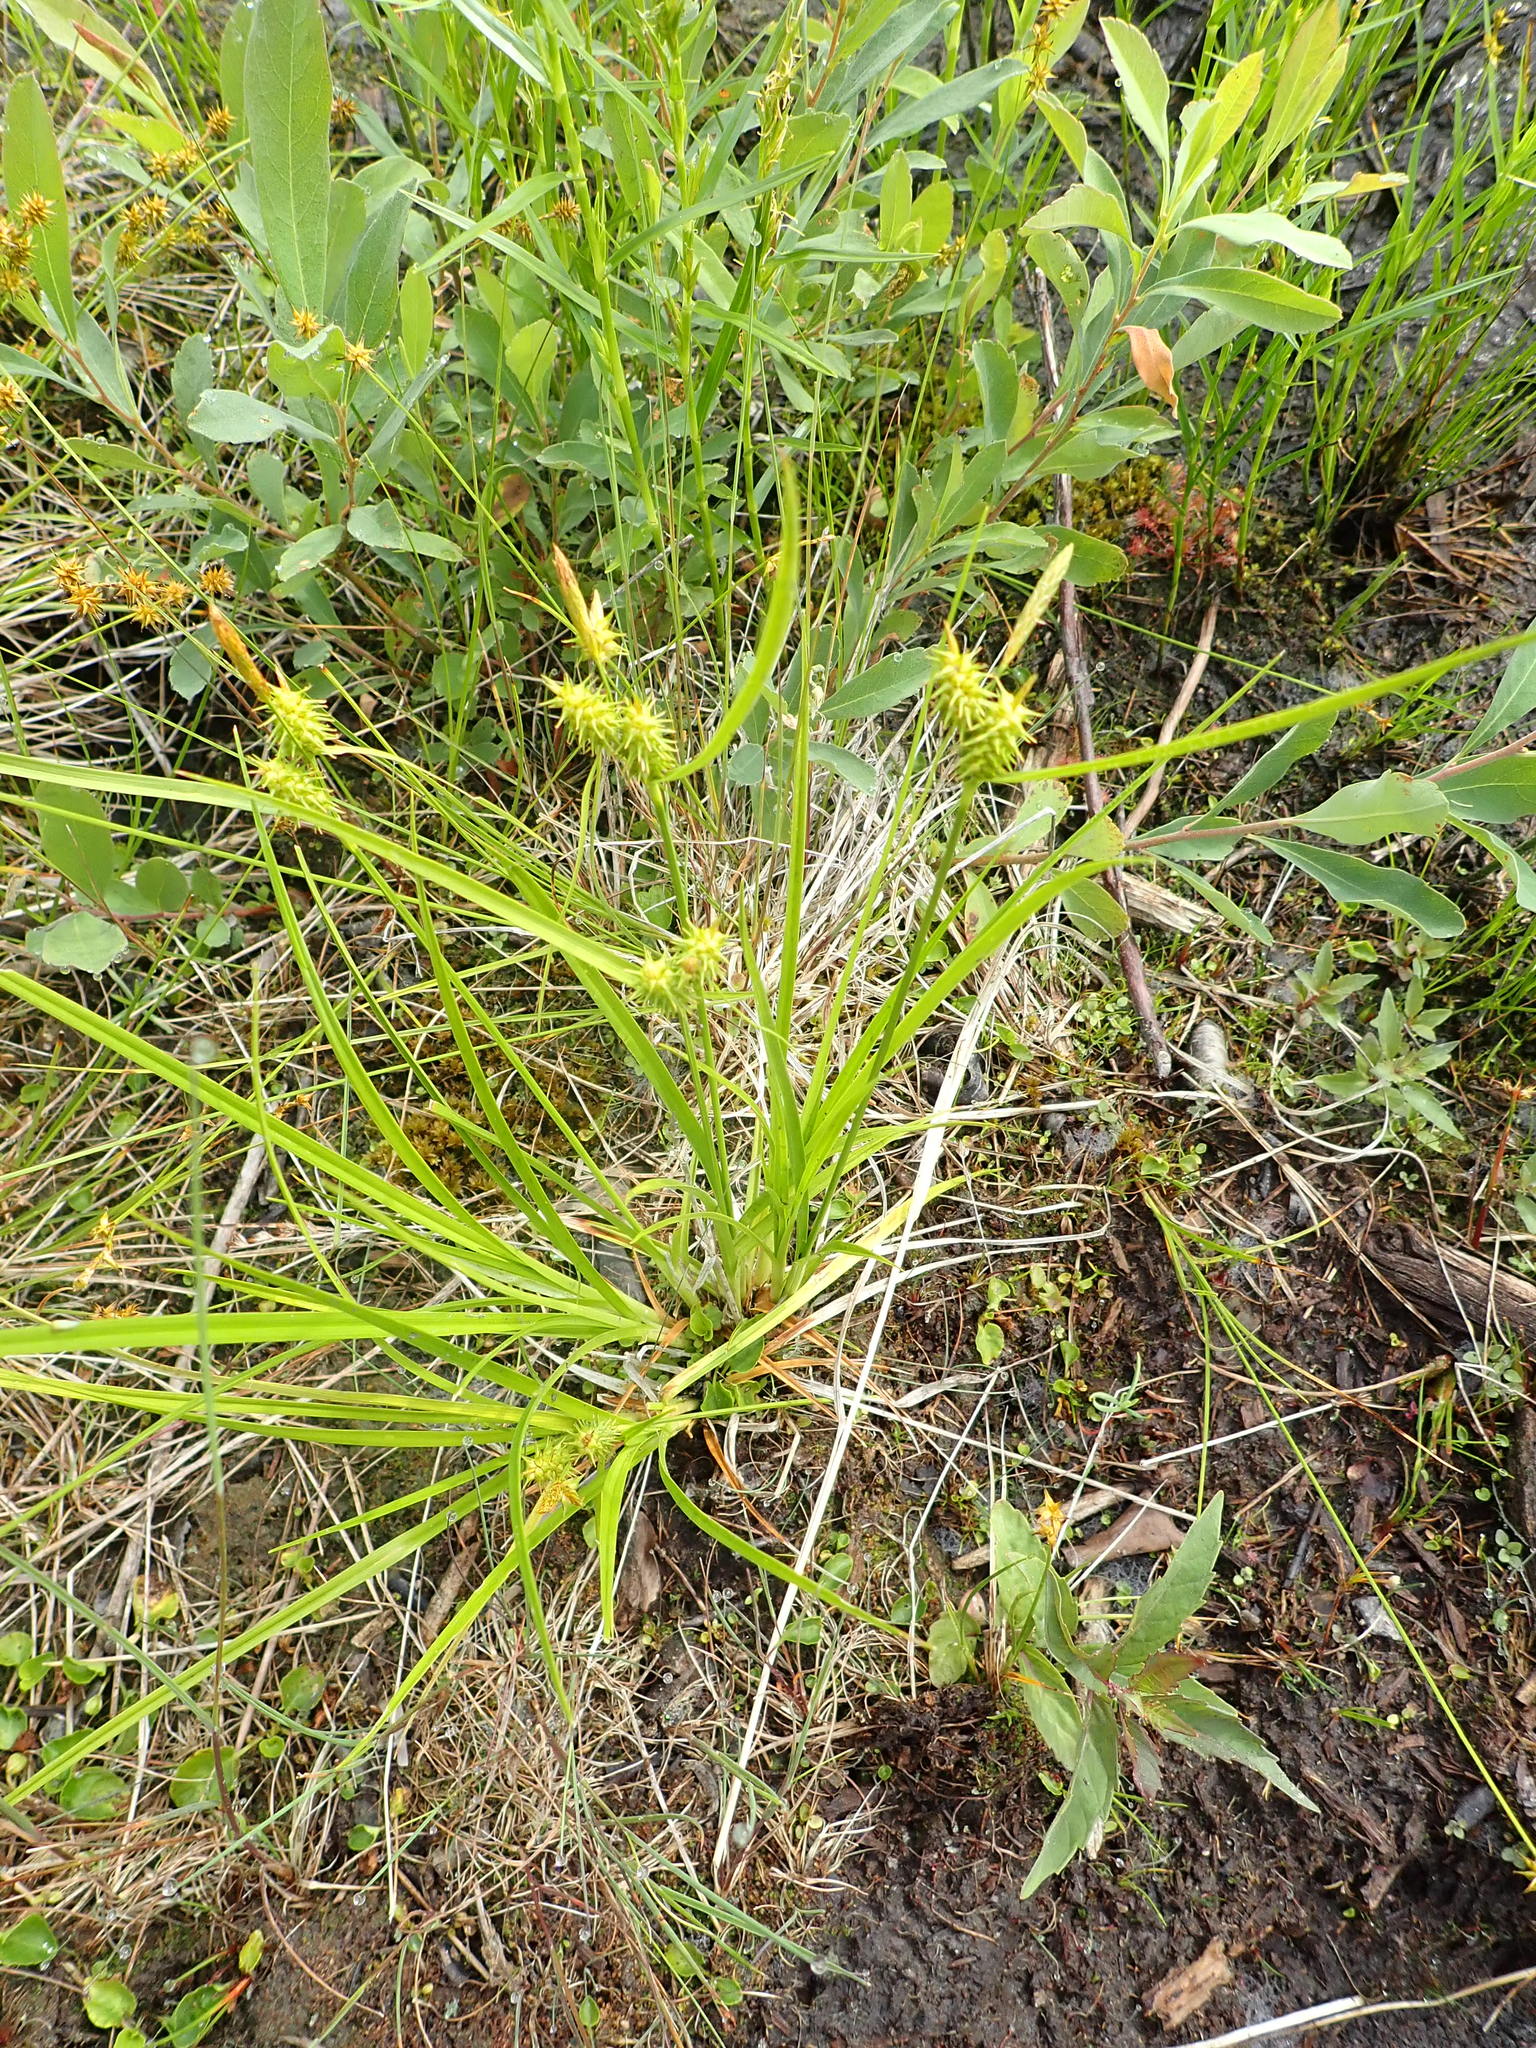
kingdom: Plantae
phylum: Tracheophyta
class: Liliopsida
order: Poales
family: Cyperaceae
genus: Carex
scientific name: Carex cryptolepis
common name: Northeastern sedge
